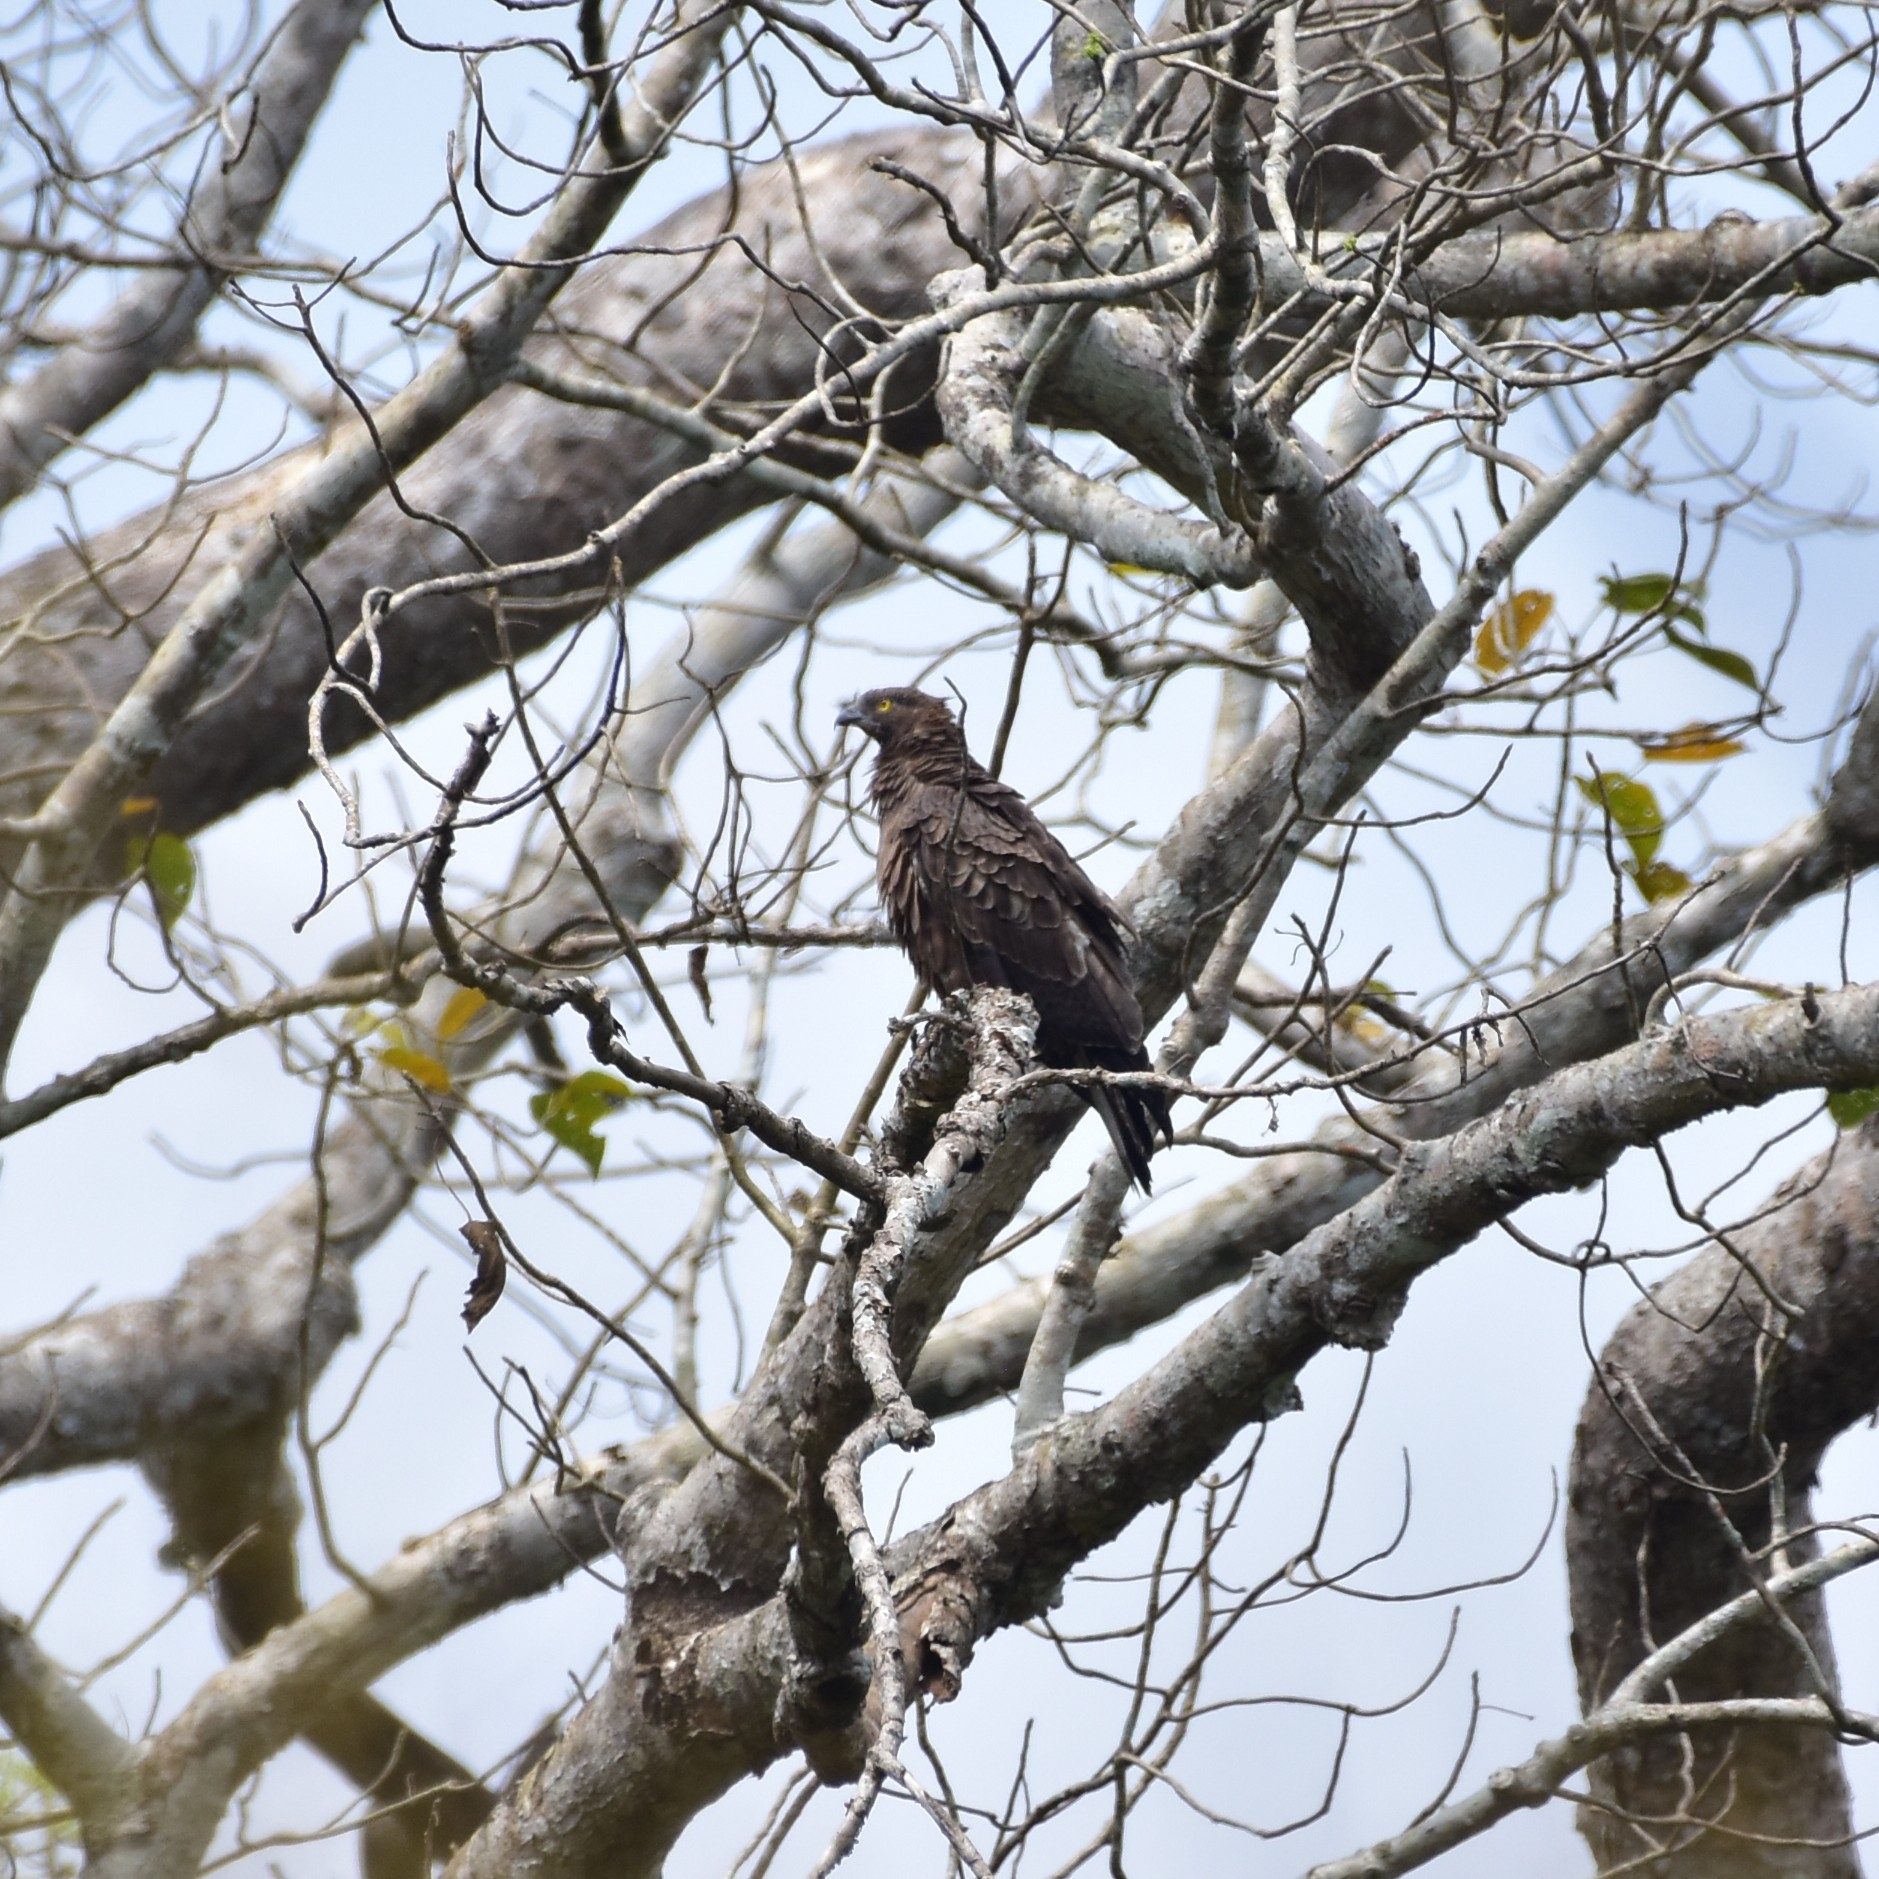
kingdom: Animalia
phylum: Chordata
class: Aves
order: Accipitriformes
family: Accipitridae
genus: Pernis
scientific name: Pernis ptilorhynchus
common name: Crested honey buzzard
